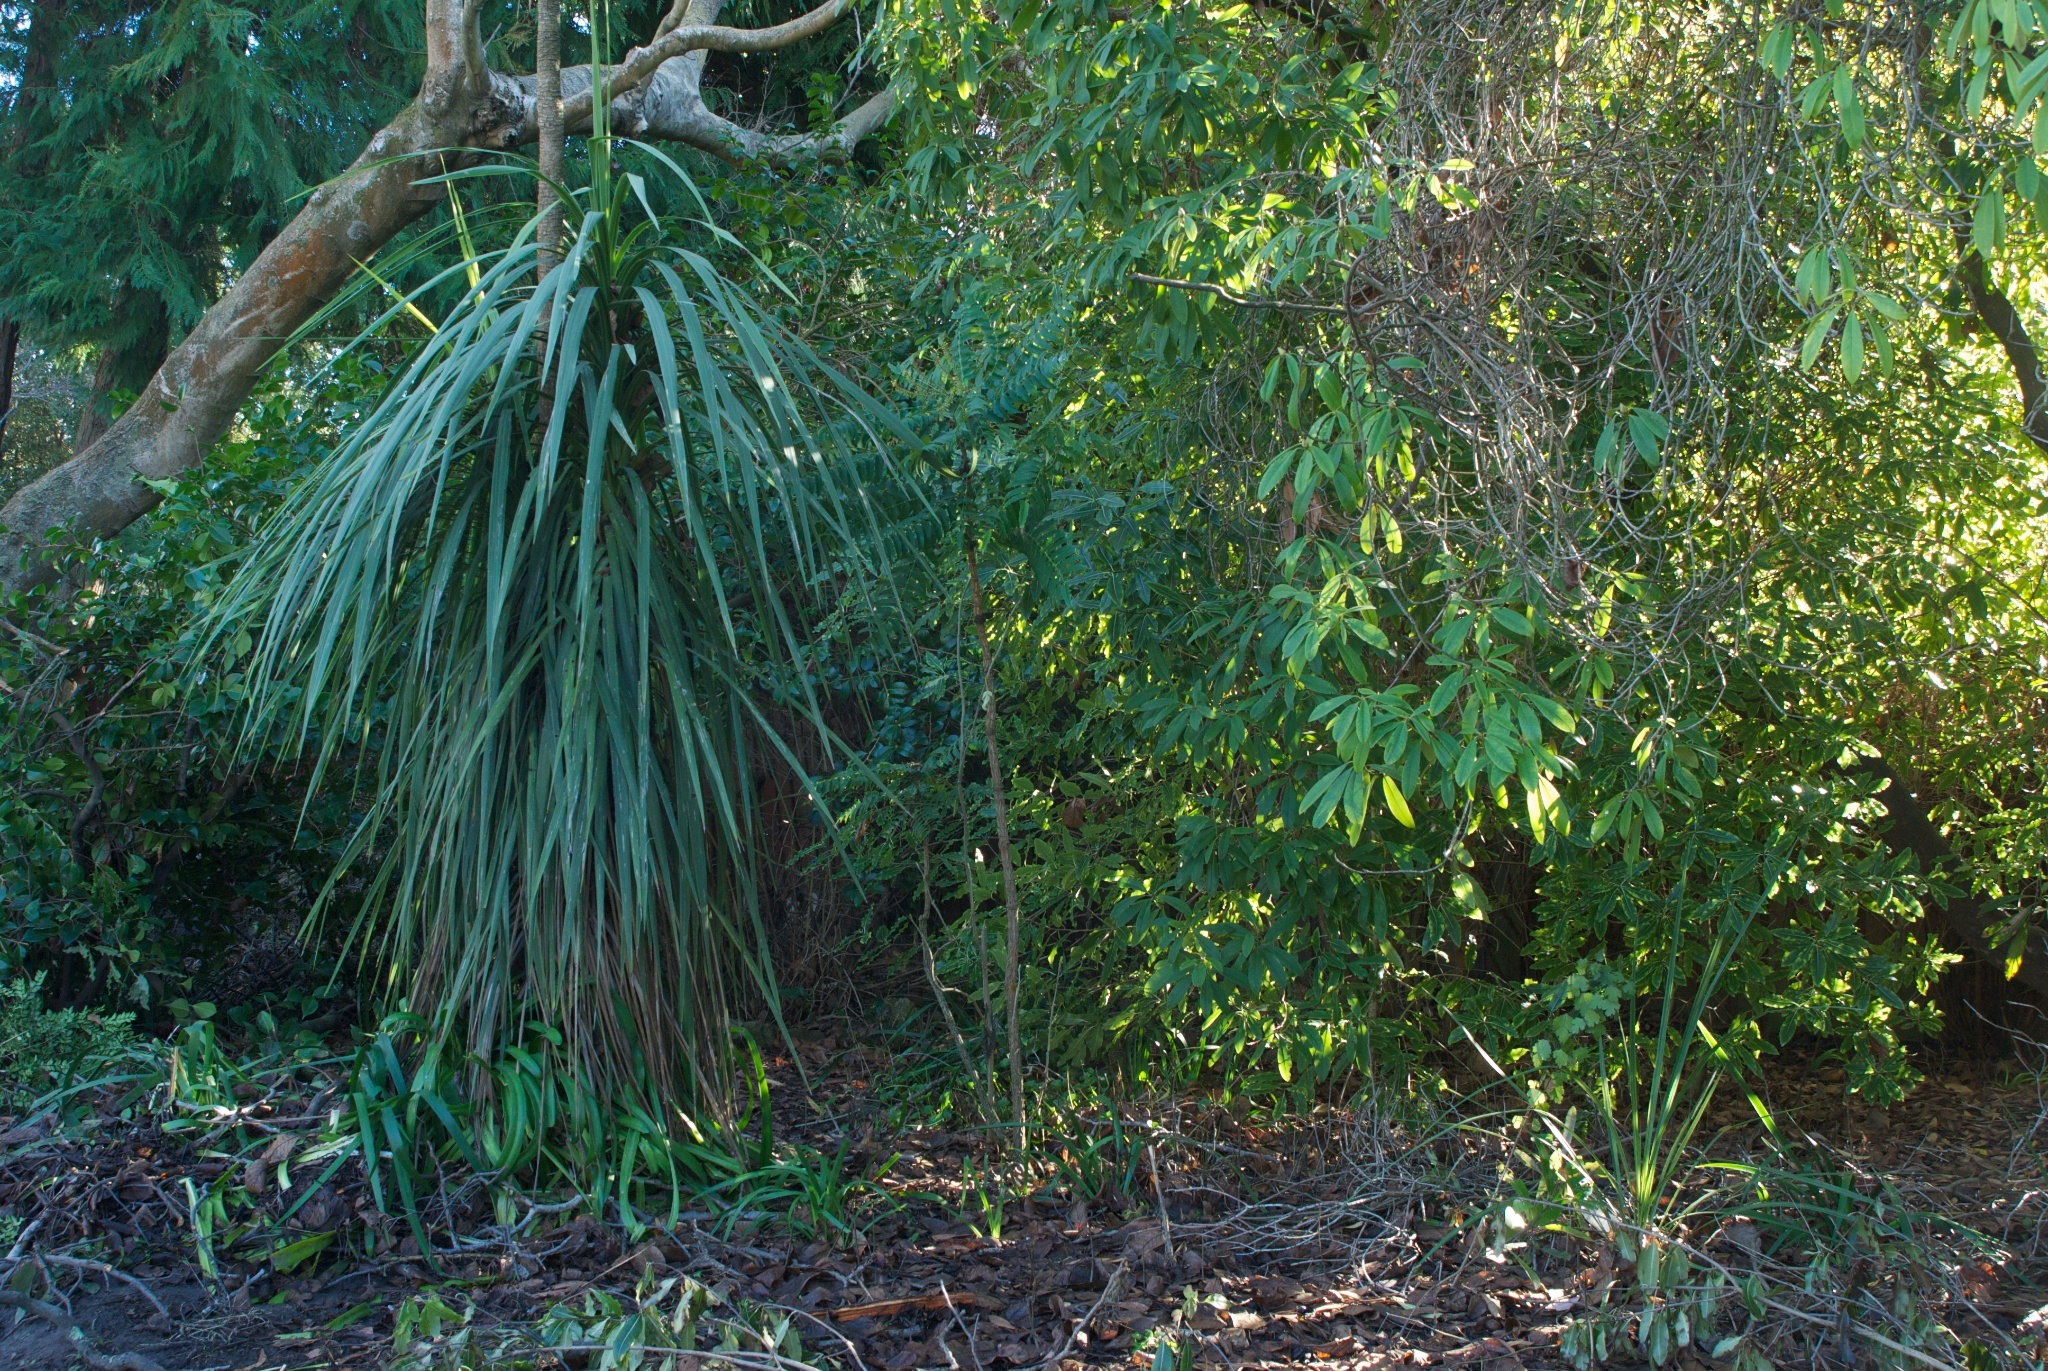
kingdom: Plantae
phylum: Tracheophyta
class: Liliopsida
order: Asparagales
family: Asparagaceae
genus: Cordyline
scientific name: Cordyline australis
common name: Cabbage-palm
